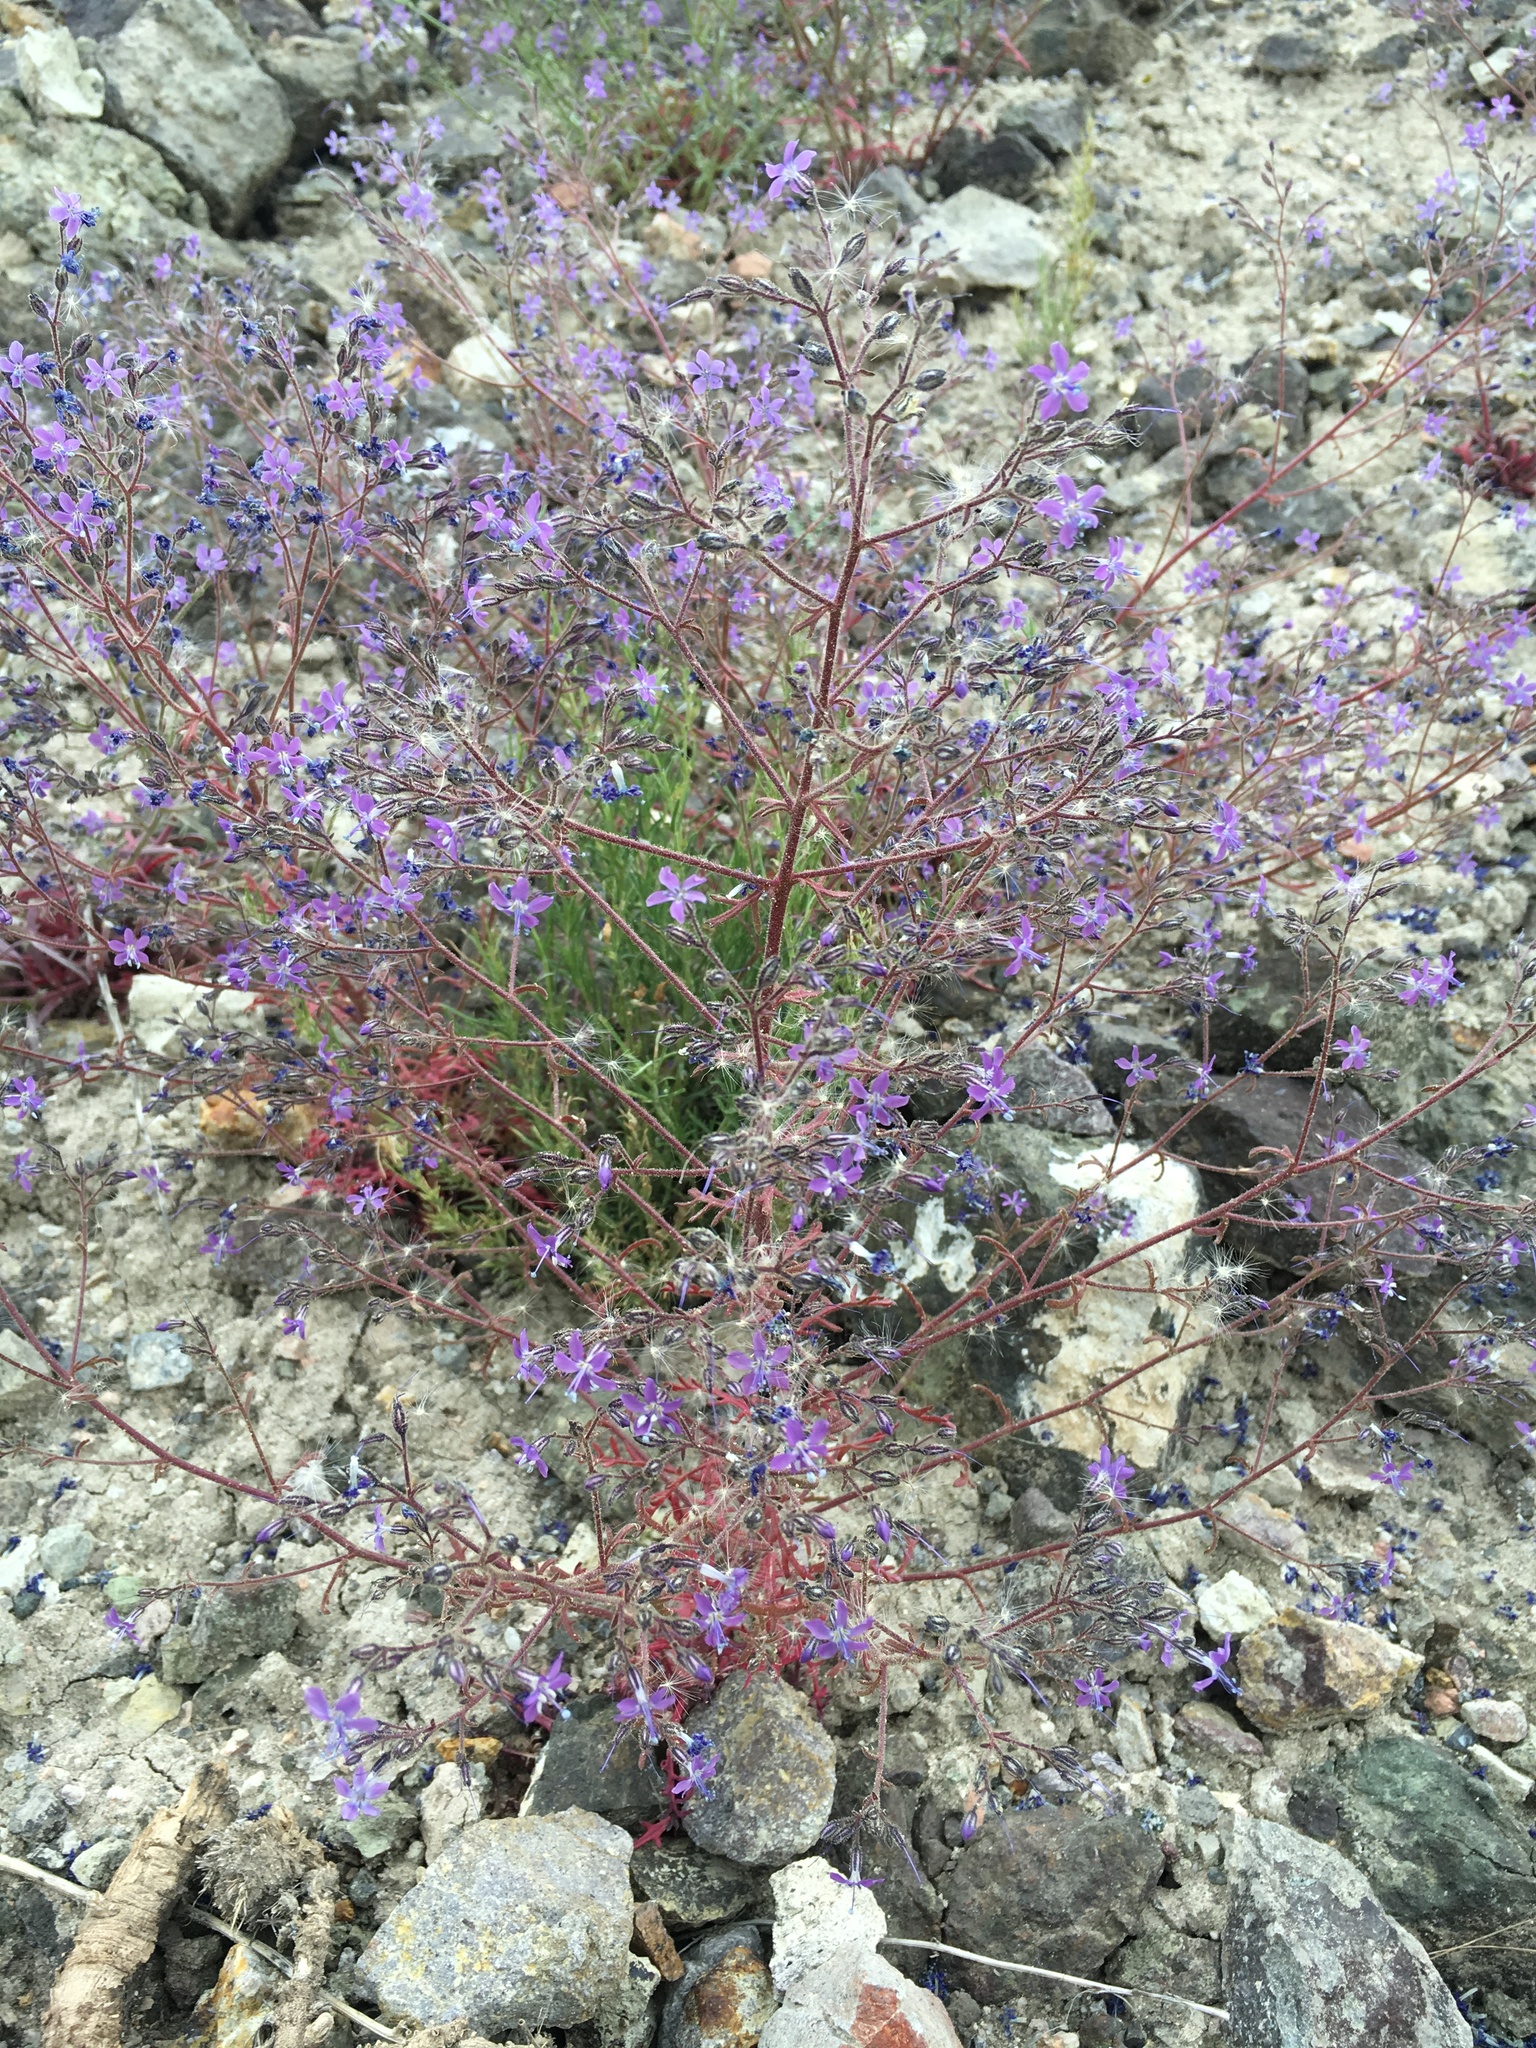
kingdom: Plantae
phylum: Tracheophyta
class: Magnoliopsida
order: Ericales
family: Polemoniaceae
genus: Aliciella
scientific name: Aliciella pinnatifida
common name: Sticky gilia
